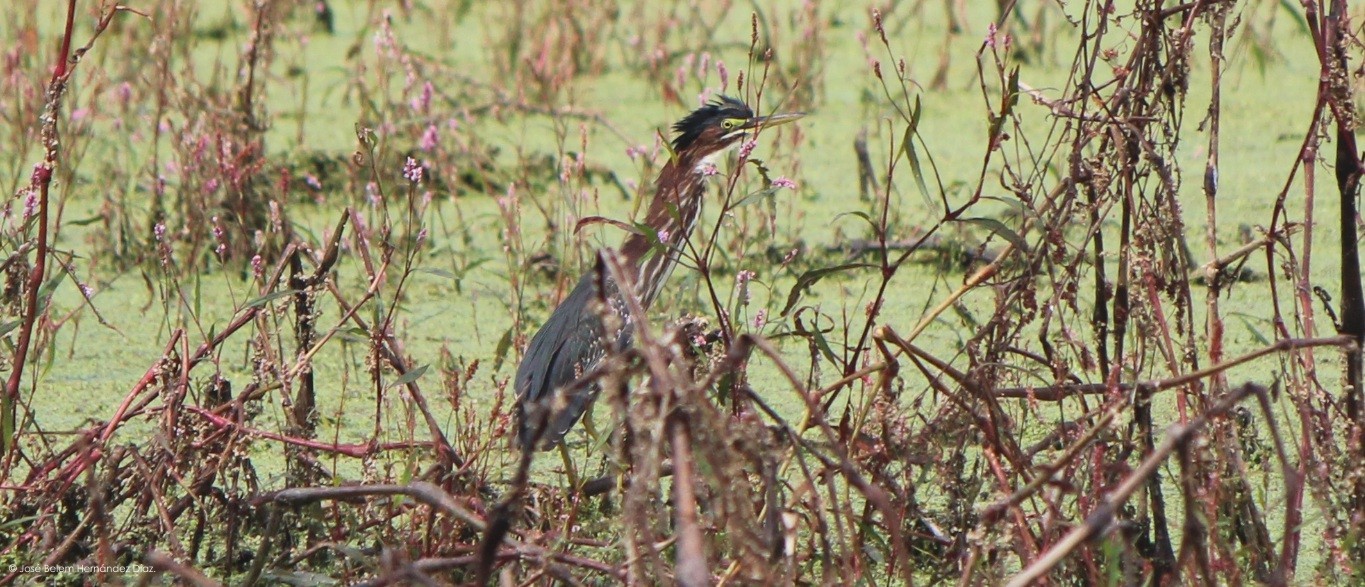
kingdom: Animalia
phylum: Chordata
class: Aves
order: Pelecaniformes
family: Ardeidae
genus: Butorides
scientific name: Butorides virescens
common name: Green heron
